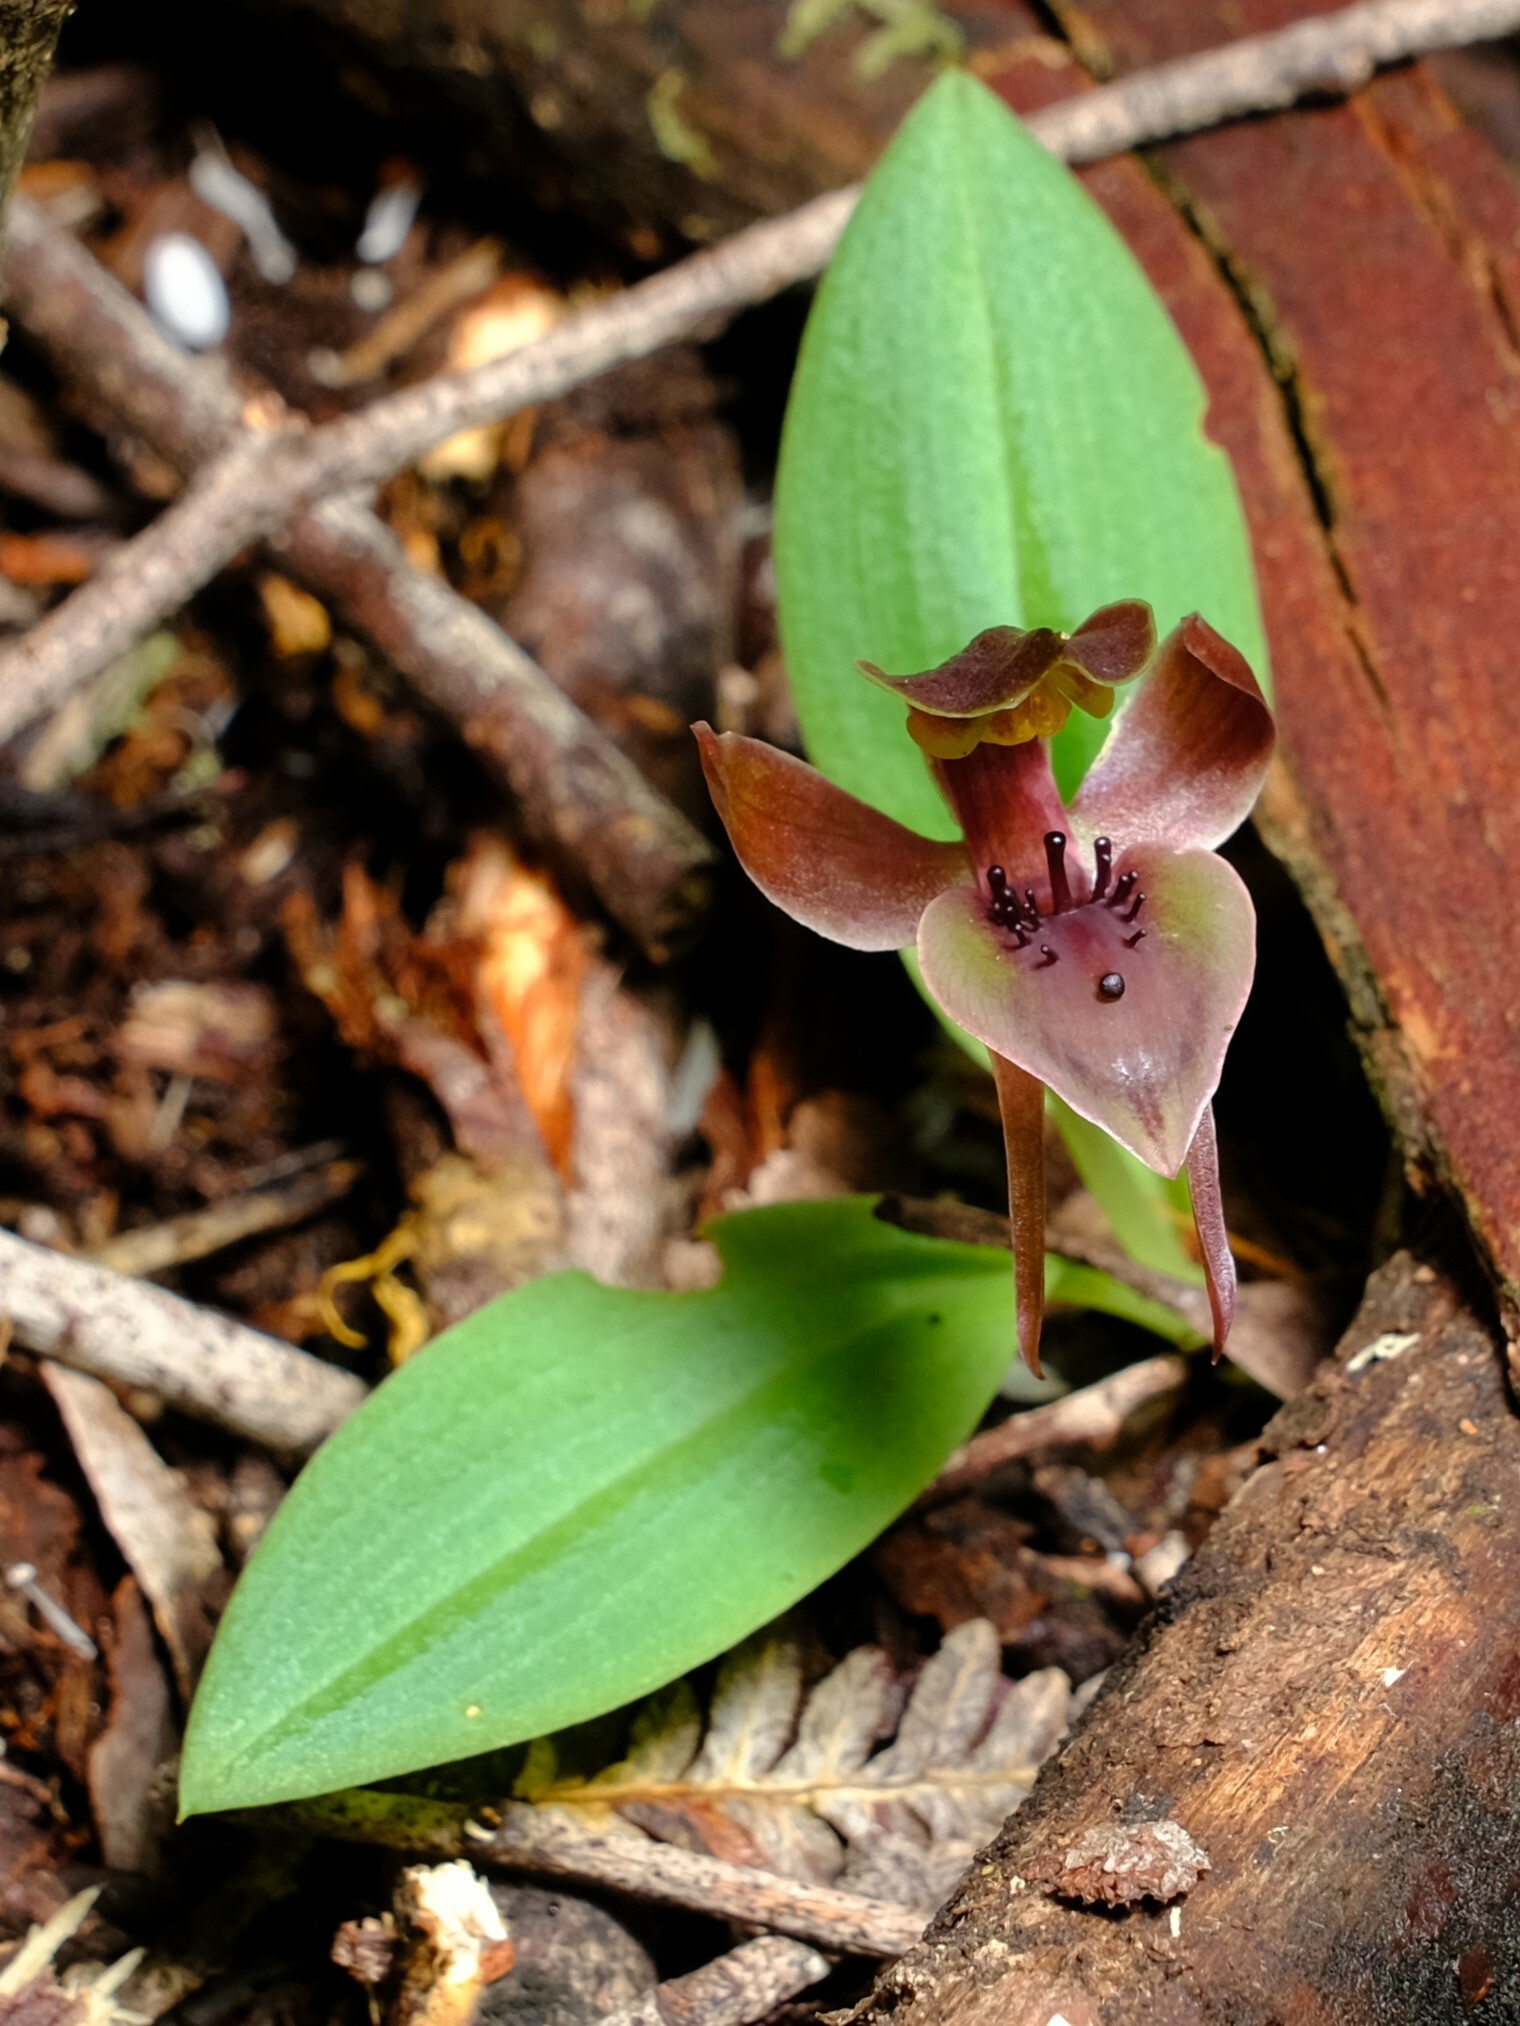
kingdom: Plantae
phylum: Tracheophyta
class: Liliopsida
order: Asparagales
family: Orchidaceae
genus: Chiloglottis
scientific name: Chiloglottis valida
